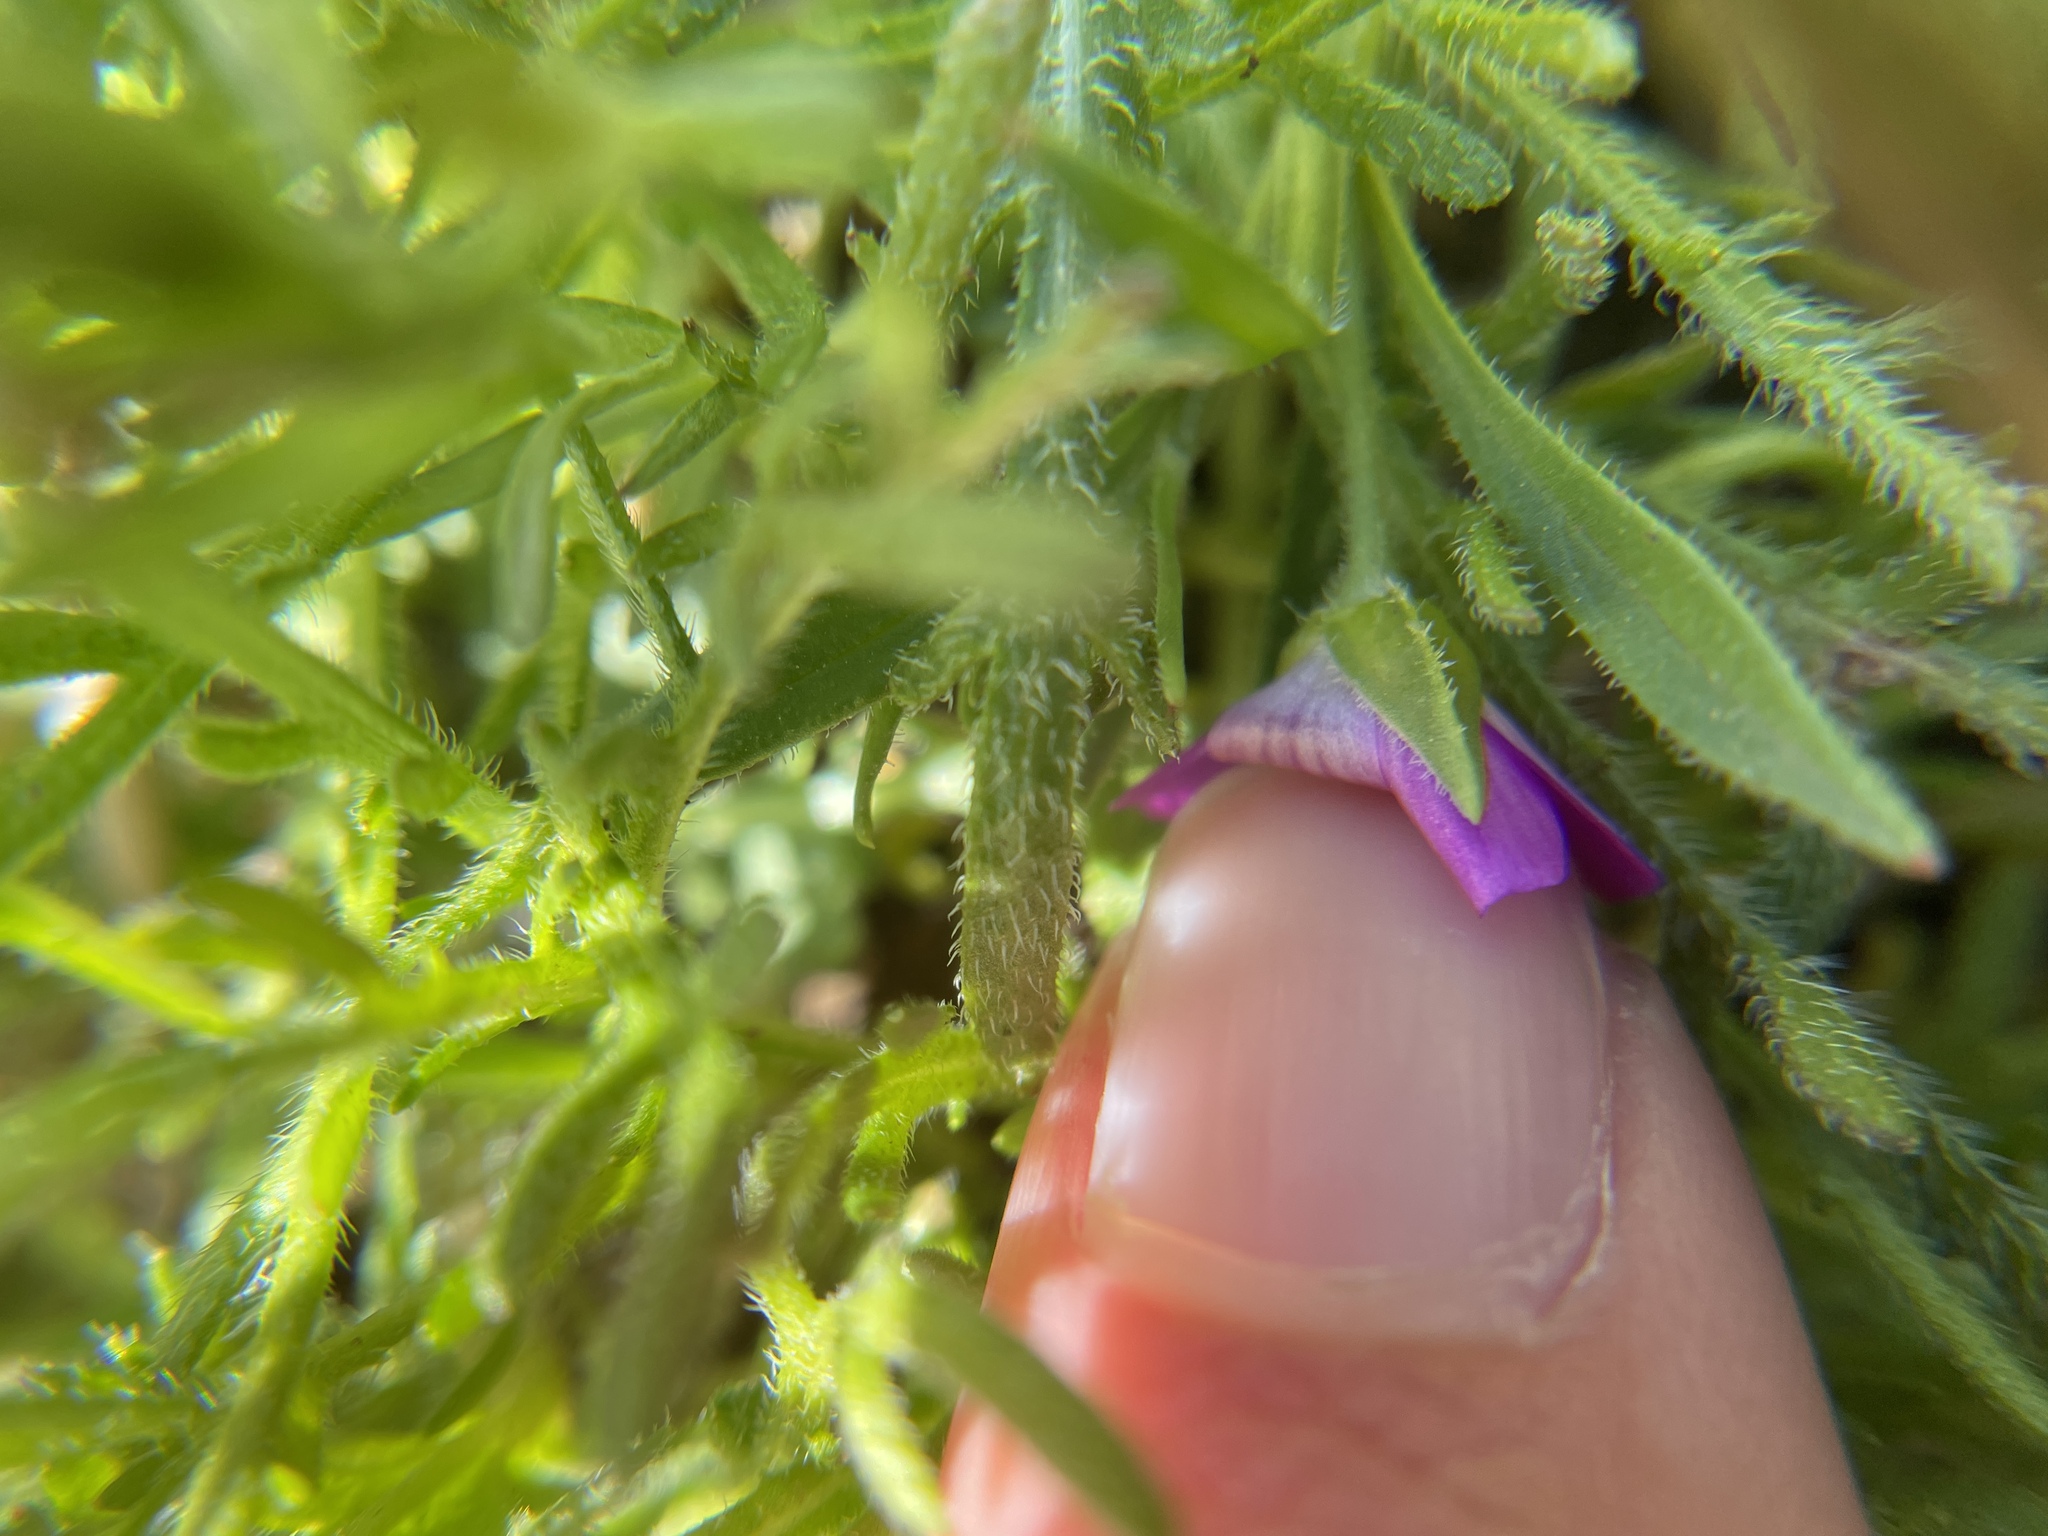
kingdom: Plantae
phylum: Tracheophyta
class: Magnoliopsida
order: Caryophyllales
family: Montiaceae
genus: Calandrinia
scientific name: Calandrinia menziesii
